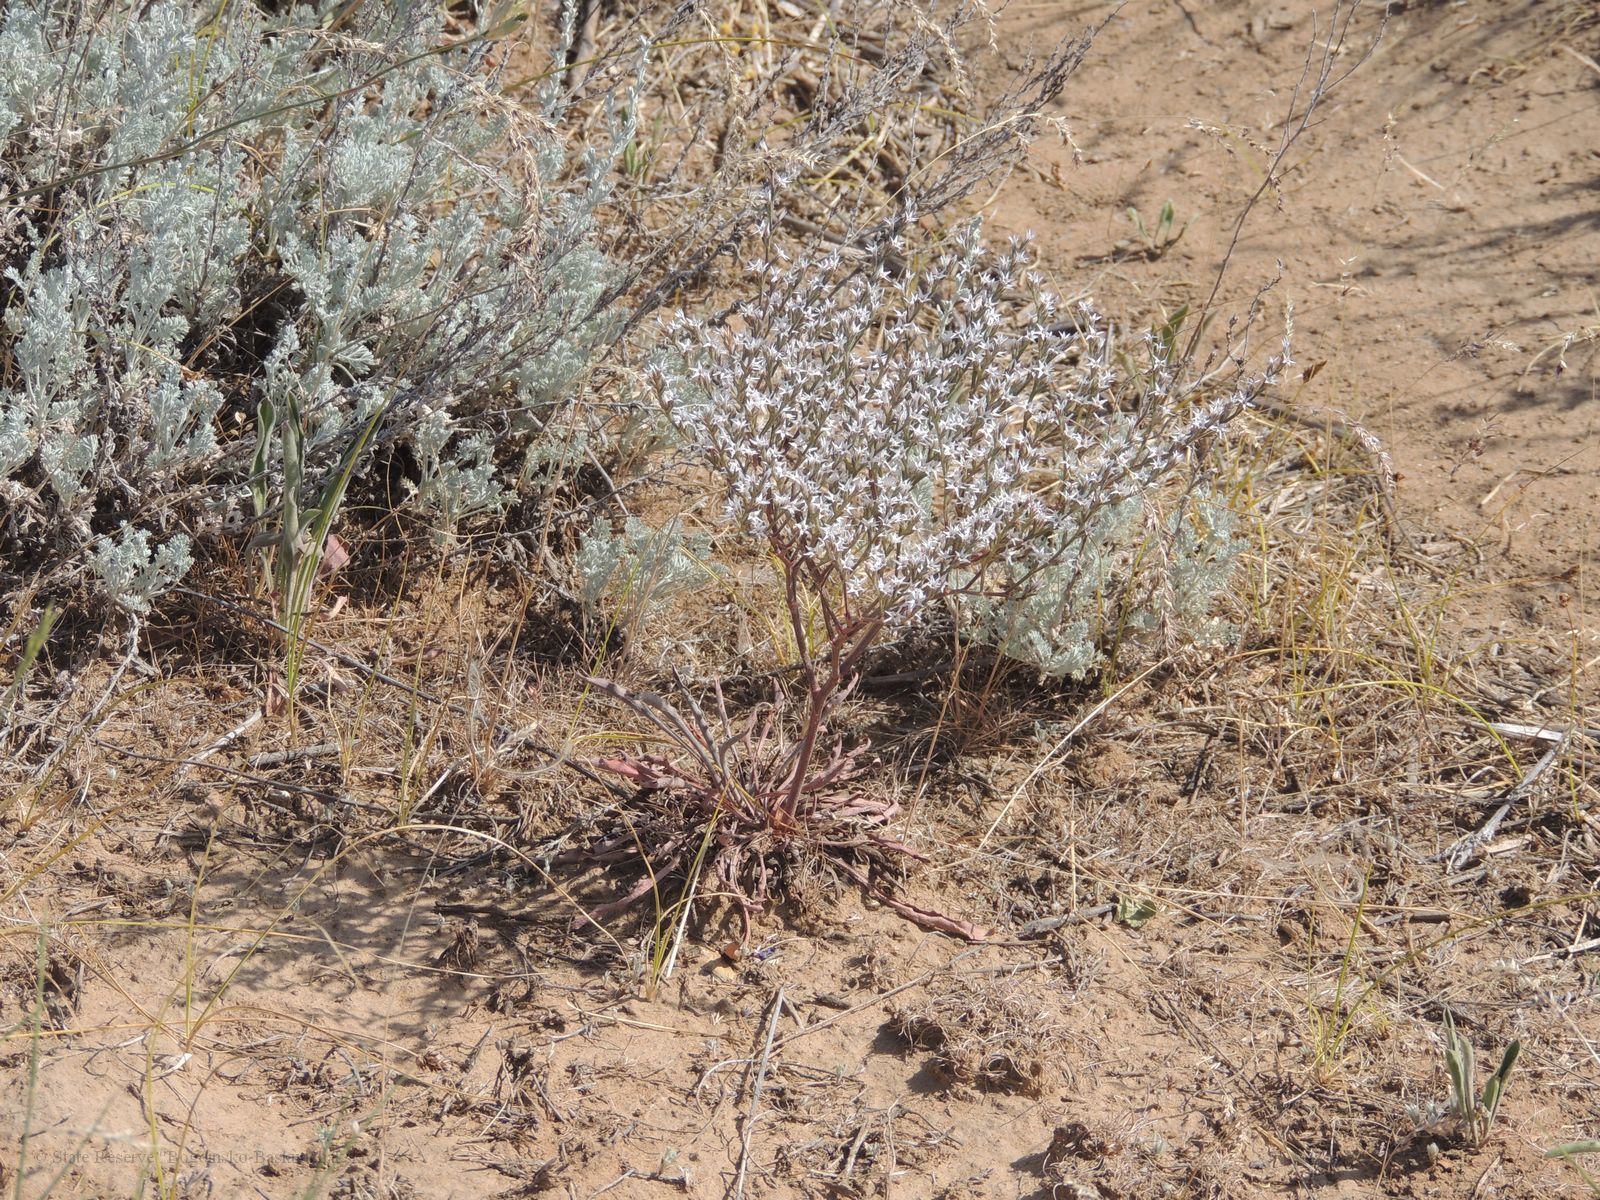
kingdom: Plantae
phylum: Tracheophyta
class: Magnoliopsida
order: Caryophyllales
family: Plumbaginaceae
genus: Goniolimon
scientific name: Goniolimon rubellum
